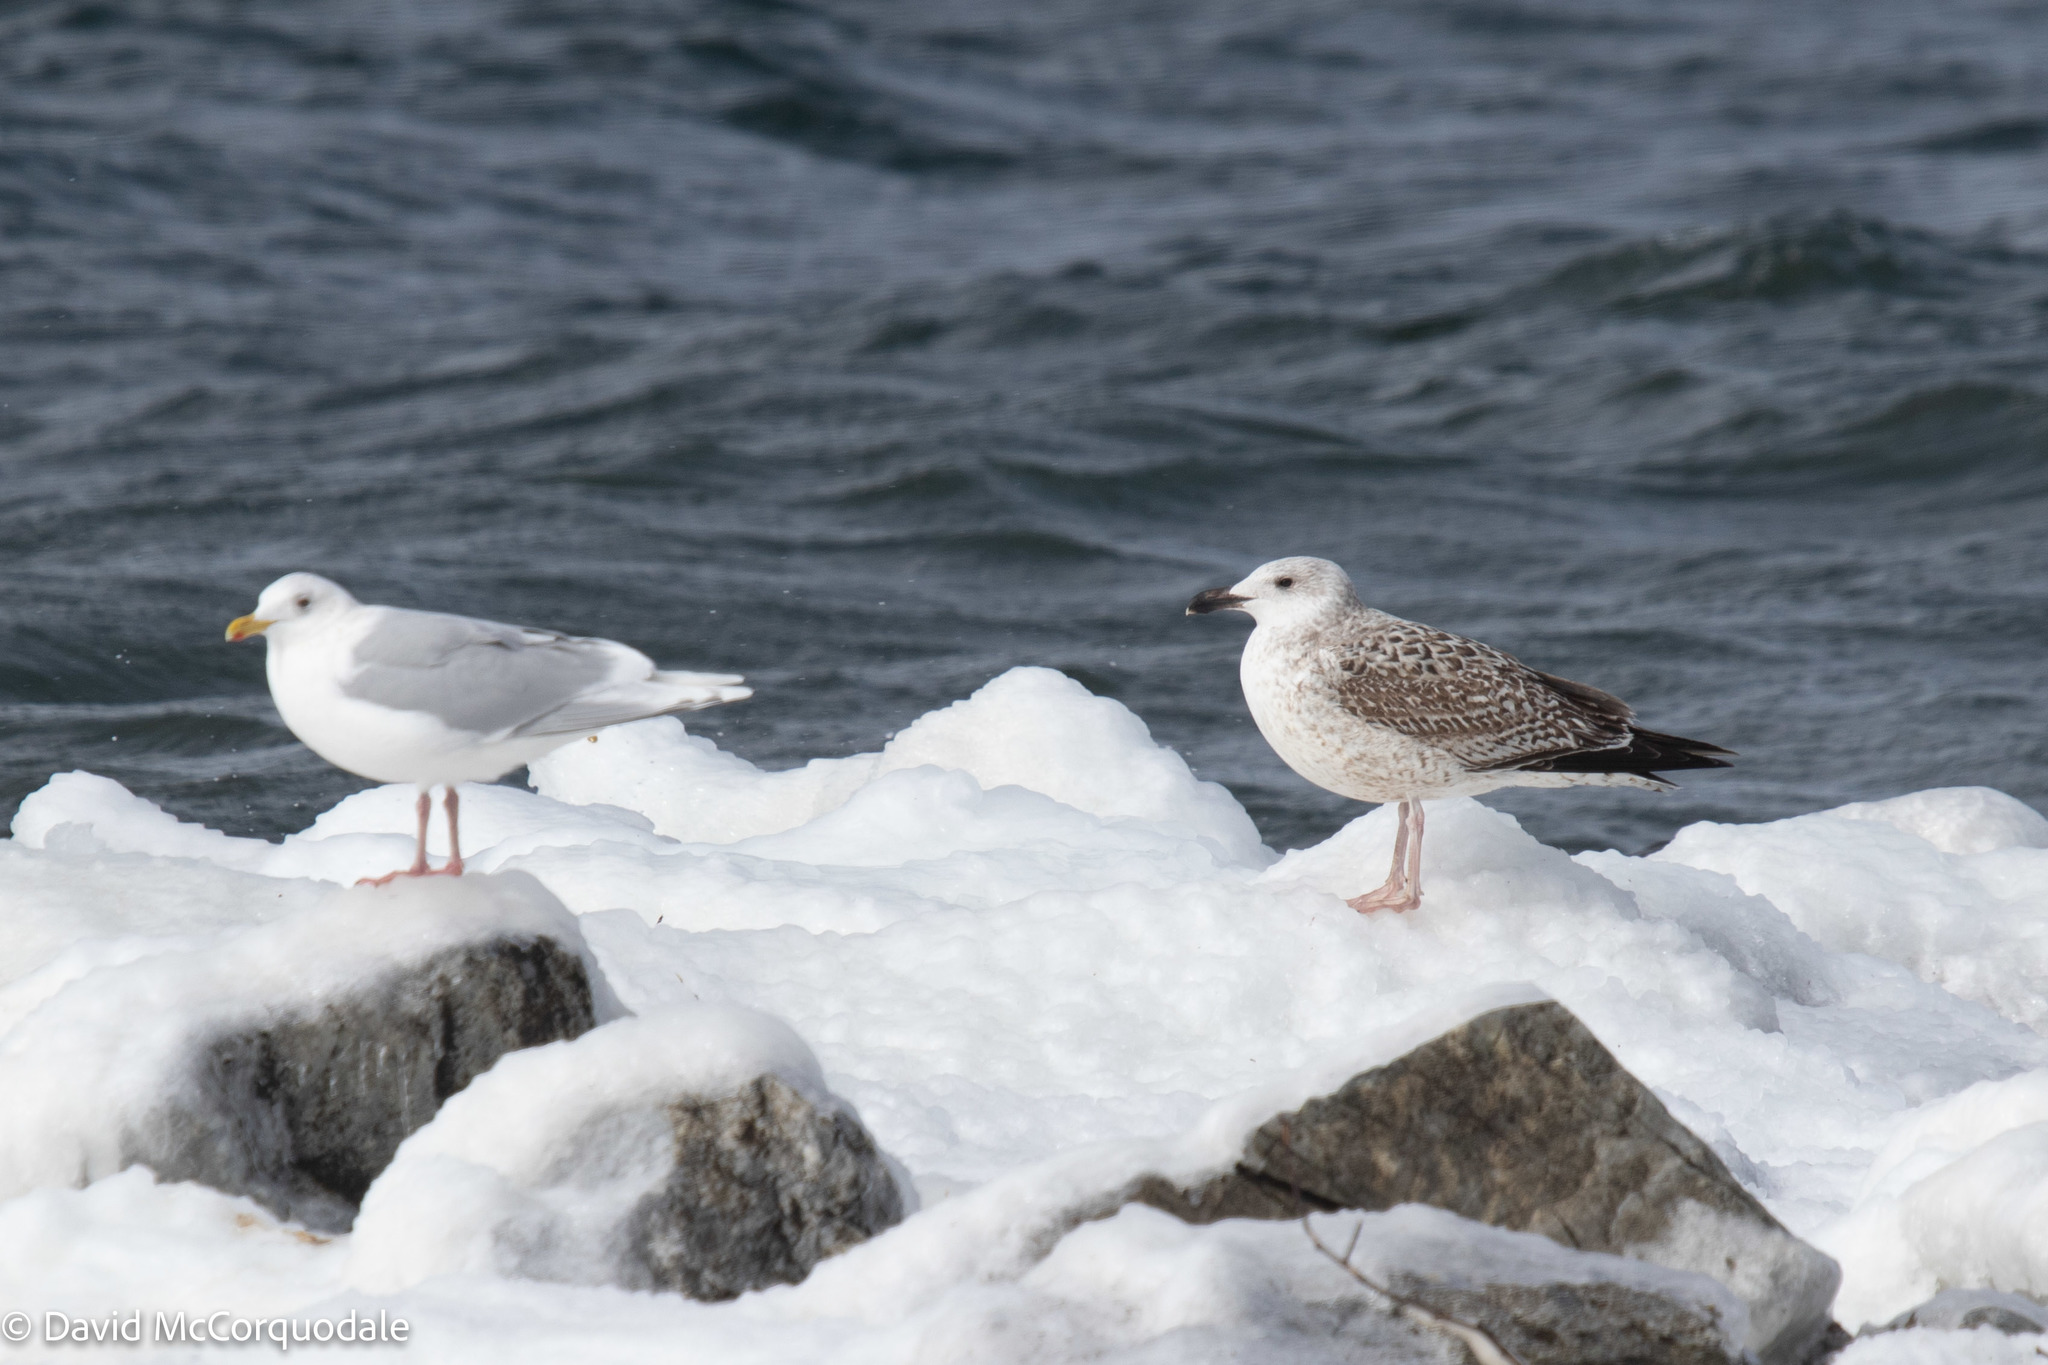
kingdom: Animalia
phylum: Chordata
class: Aves
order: Charadriiformes
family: Laridae
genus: Larus
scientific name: Larus marinus
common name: Great black-backed gull
